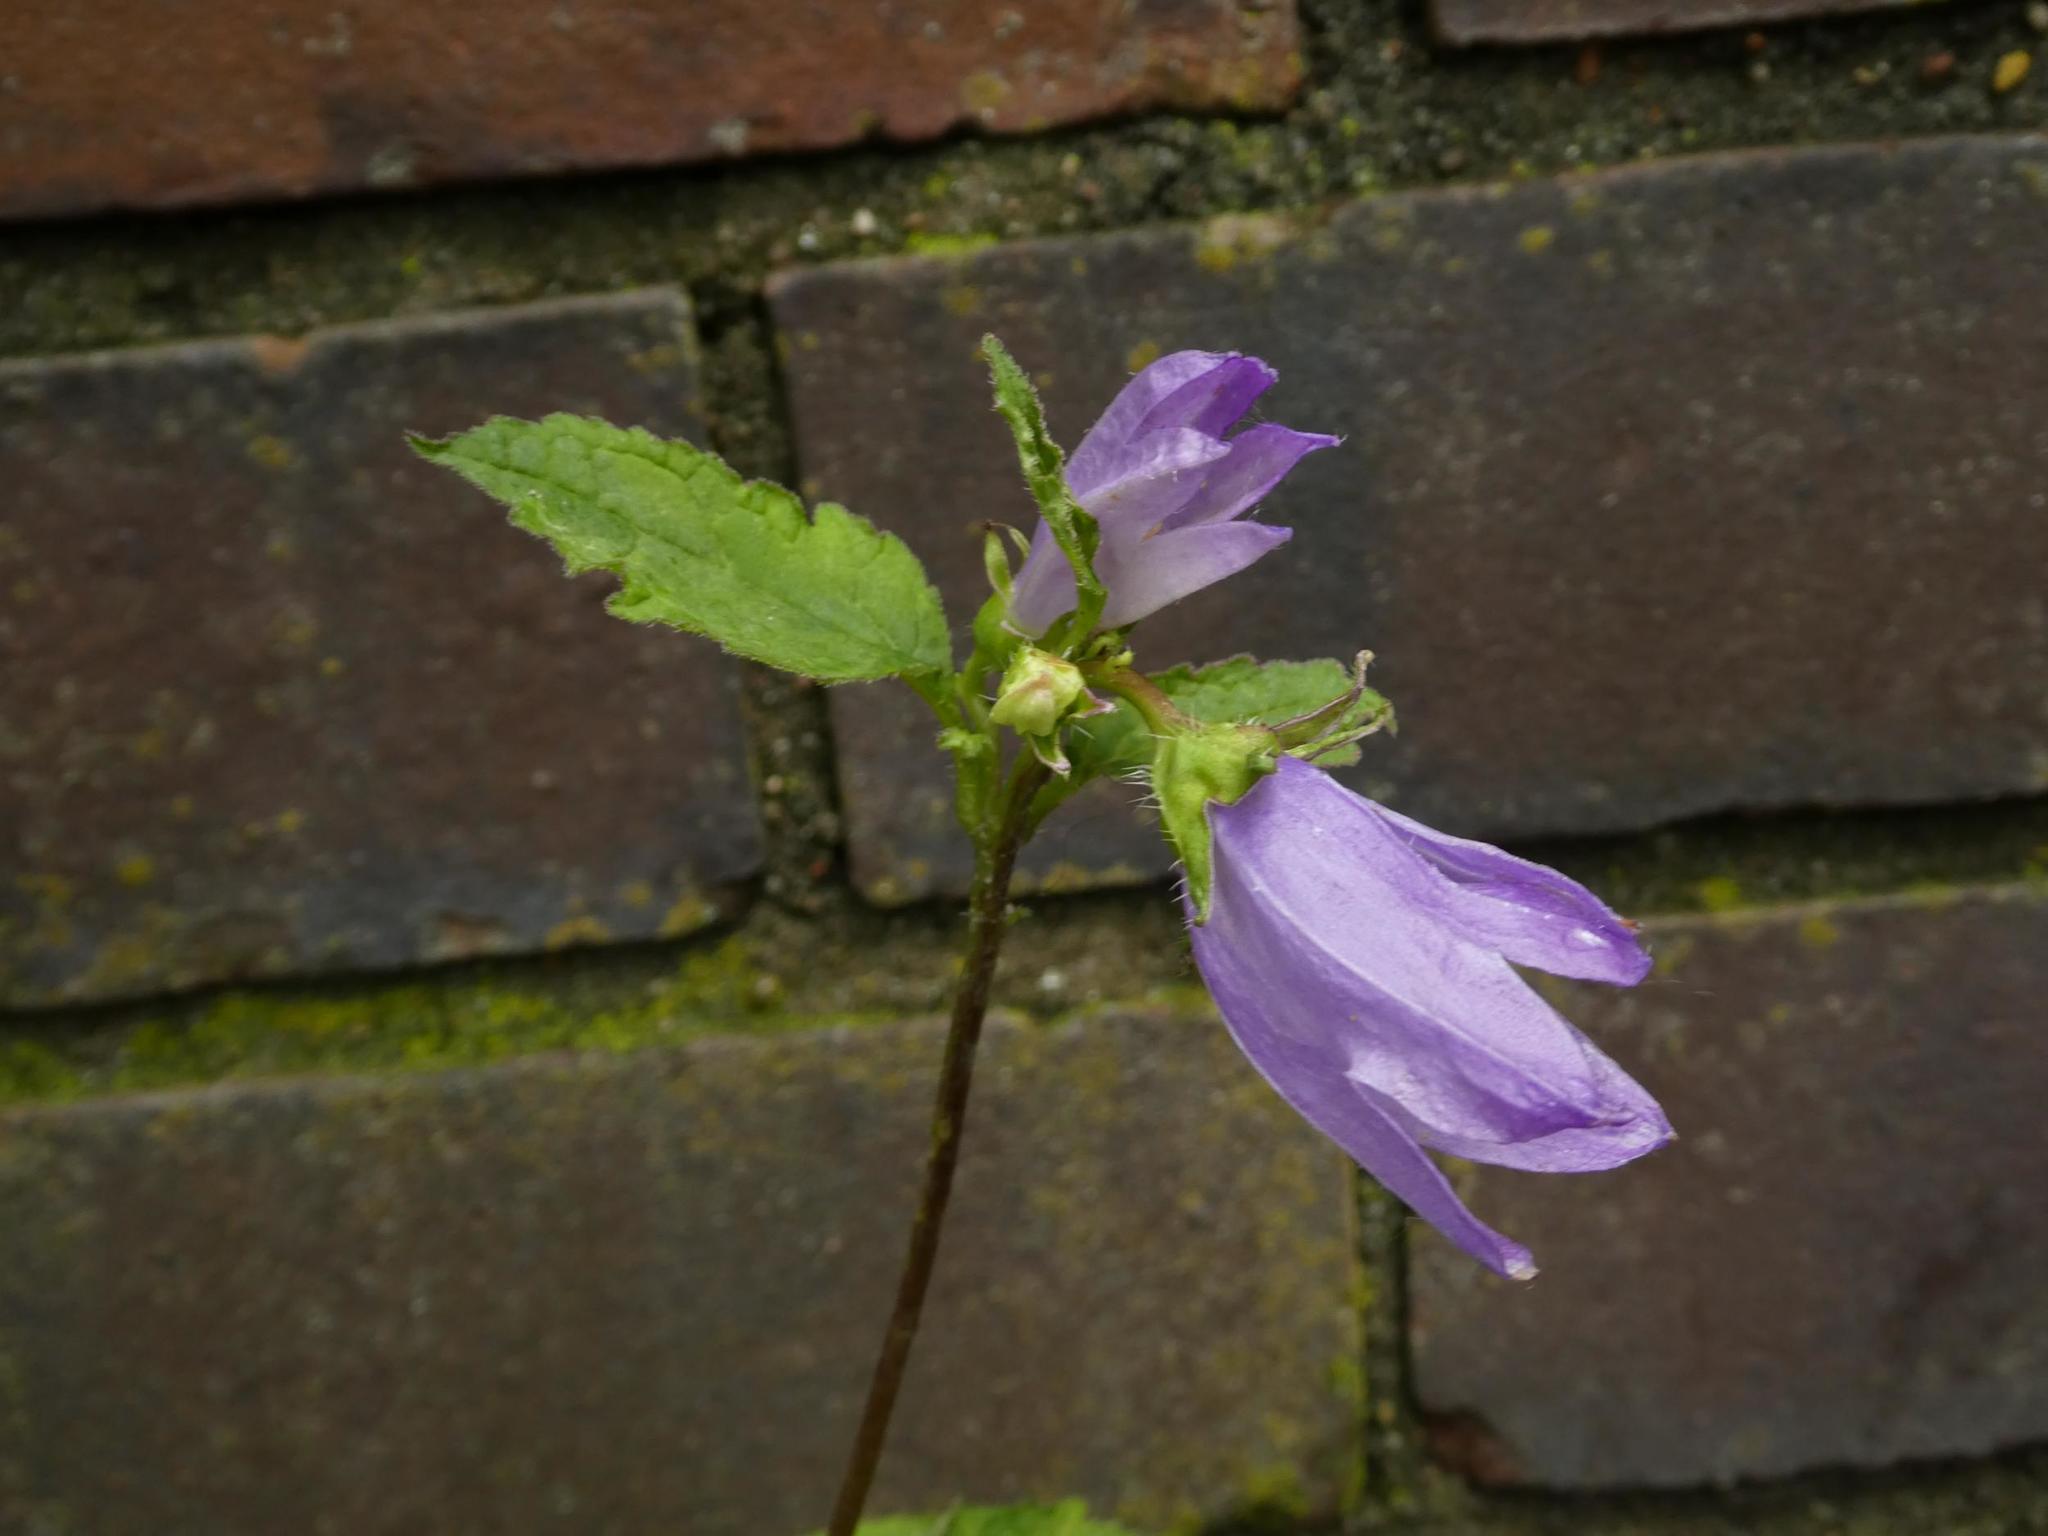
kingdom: Plantae
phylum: Tracheophyta
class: Magnoliopsida
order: Asterales
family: Campanulaceae
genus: Campanula
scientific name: Campanula trachelium
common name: Nettle-leaved bellflower
